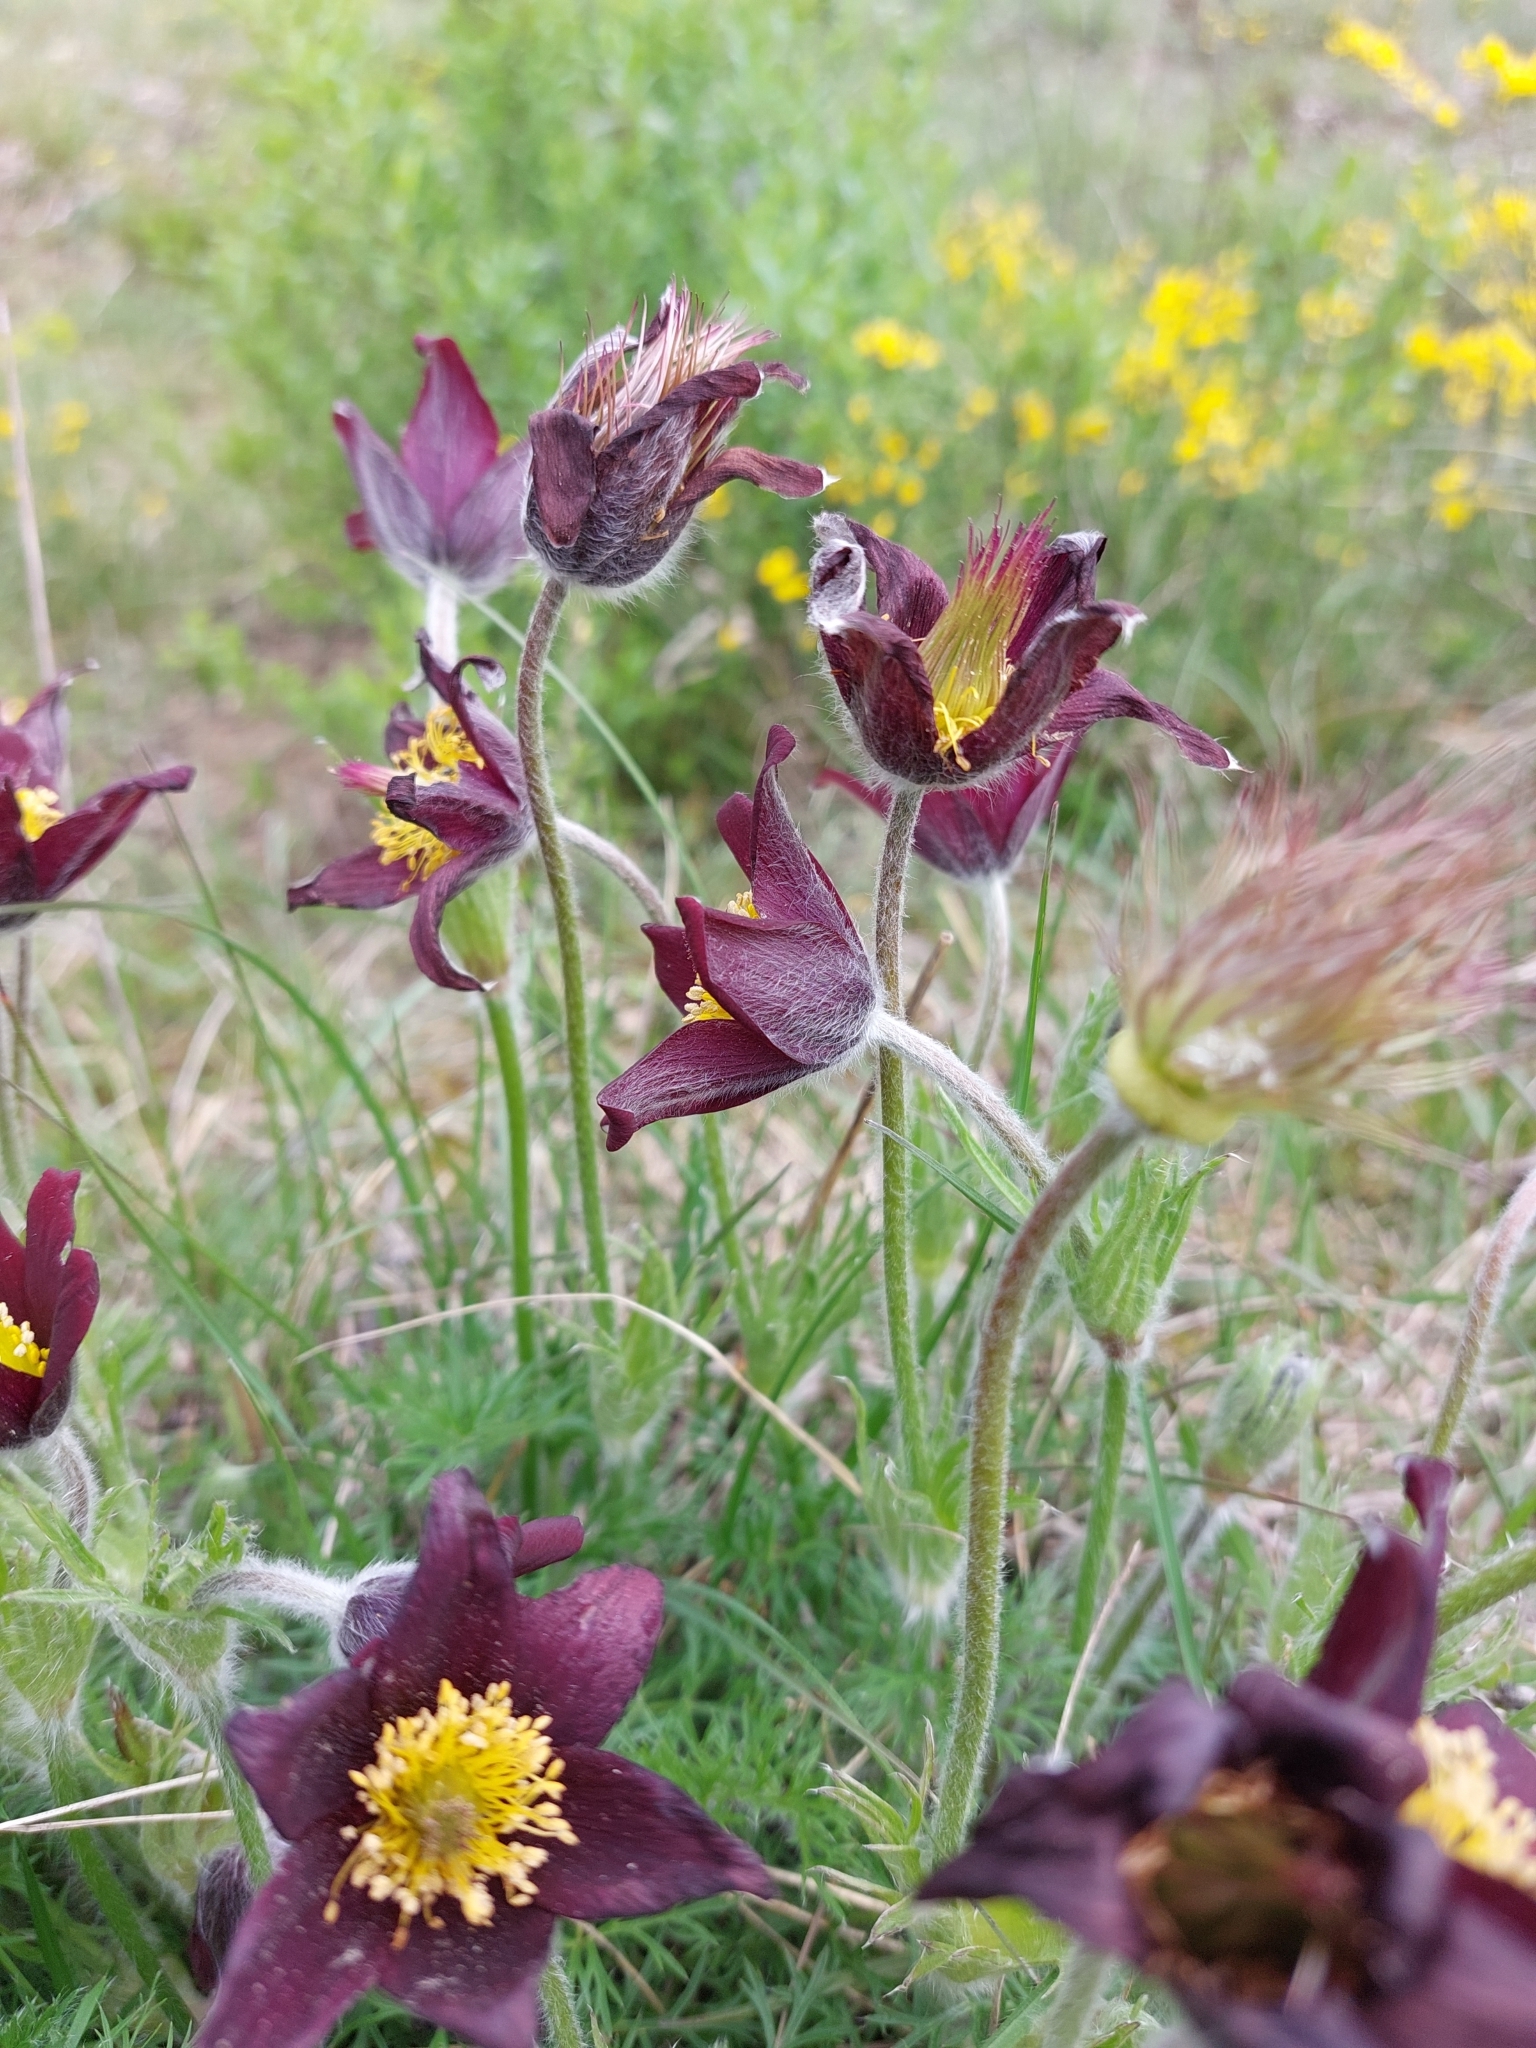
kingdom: Plantae
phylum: Tracheophyta
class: Magnoliopsida
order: Ranunculales
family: Ranunculaceae
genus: Pulsatilla
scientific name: Pulsatilla rubra
